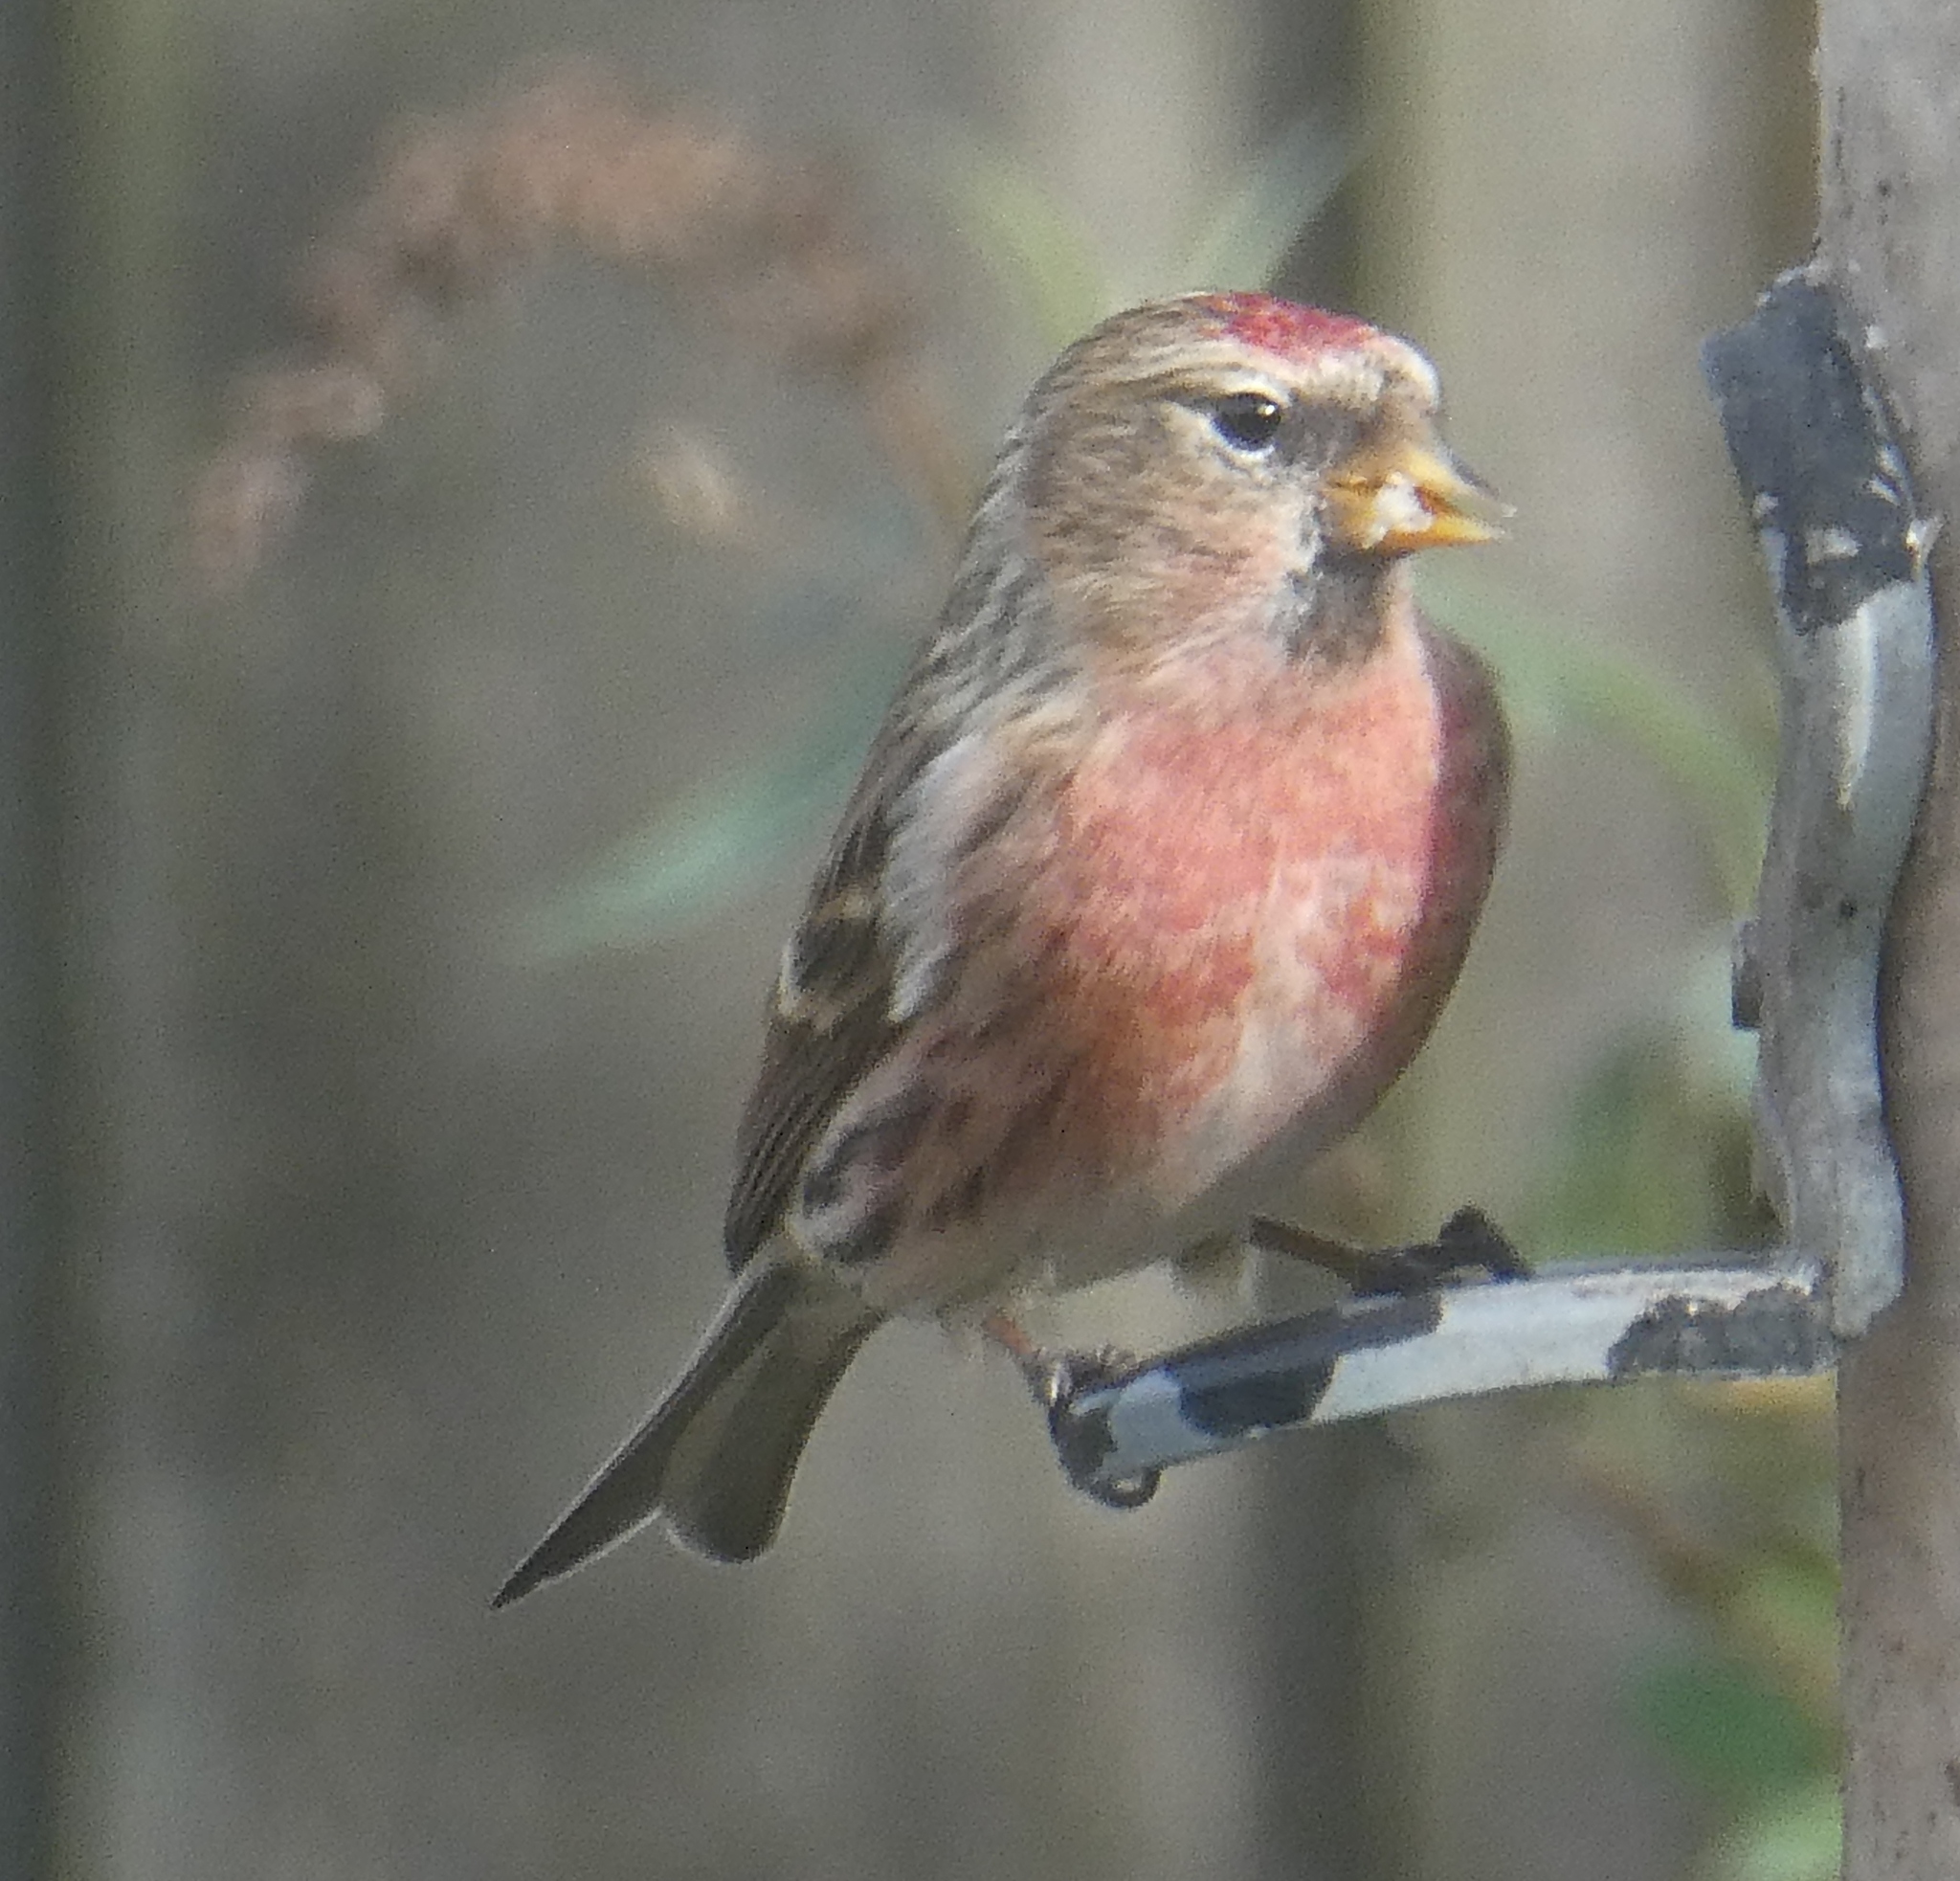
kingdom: Animalia
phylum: Chordata
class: Aves
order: Passeriformes
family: Fringillidae
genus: Acanthis
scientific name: Acanthis flammea
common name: Common redpoll
